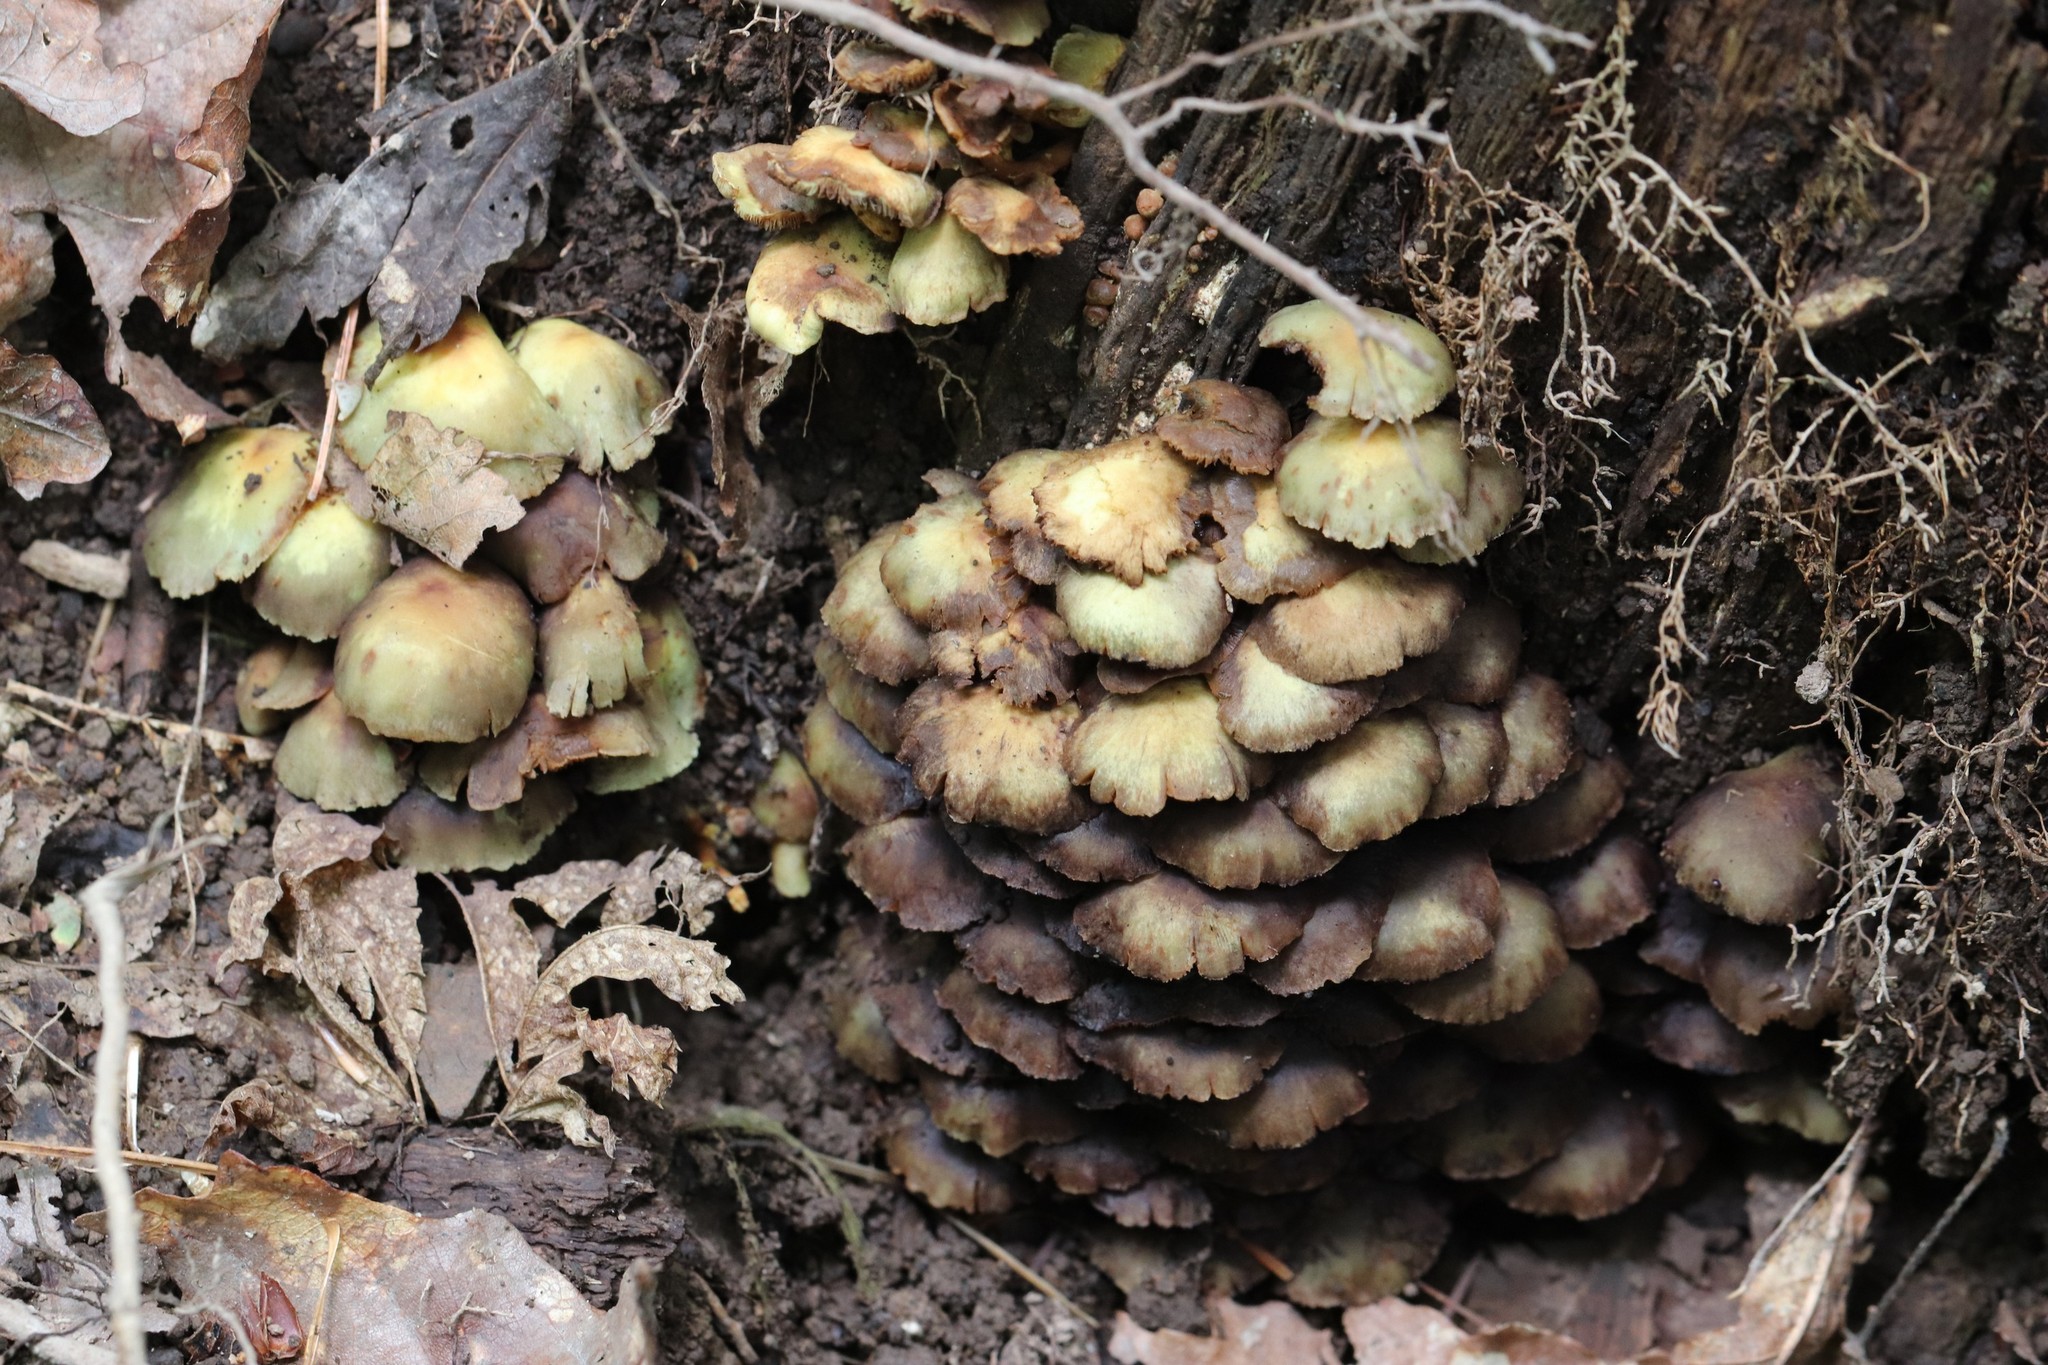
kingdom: Fungi
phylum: Basidiomycota
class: Agaricomycetes
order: Agaricales
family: Strophariaceae
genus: Hypholoma
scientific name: Hypholoma fasciculare
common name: Sulphur tuft
